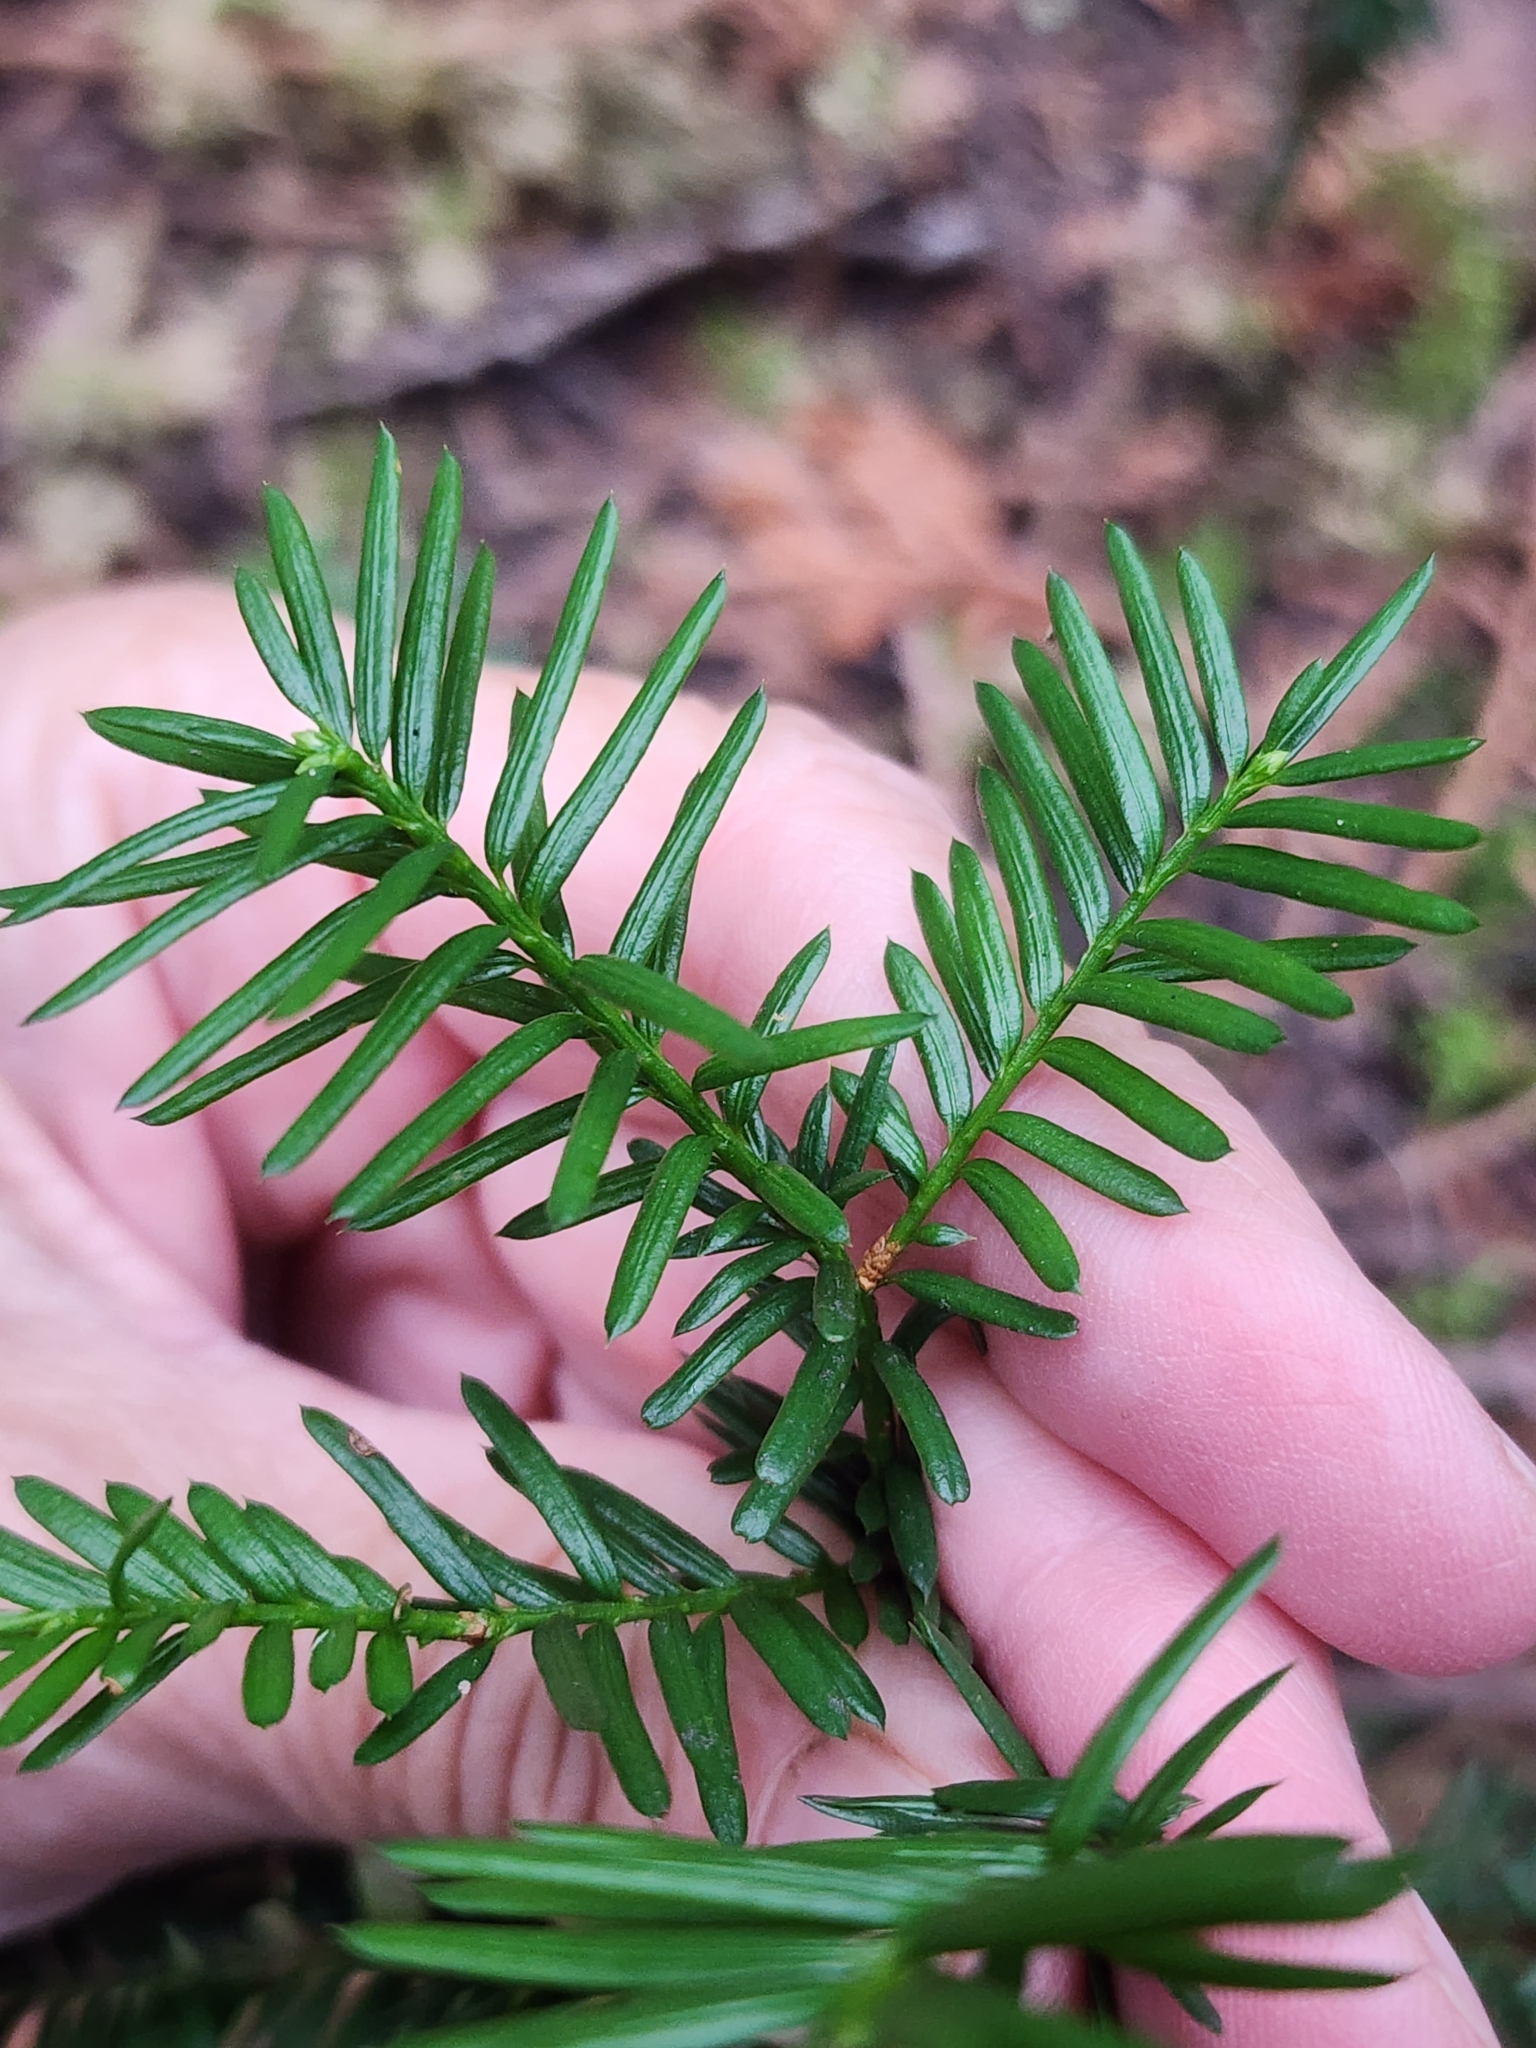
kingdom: Plantae
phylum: Tracheophyta
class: Pinopsida
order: Pinales
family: Taxaceae
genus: Taxus
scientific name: Taxus canadensis
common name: American yew
